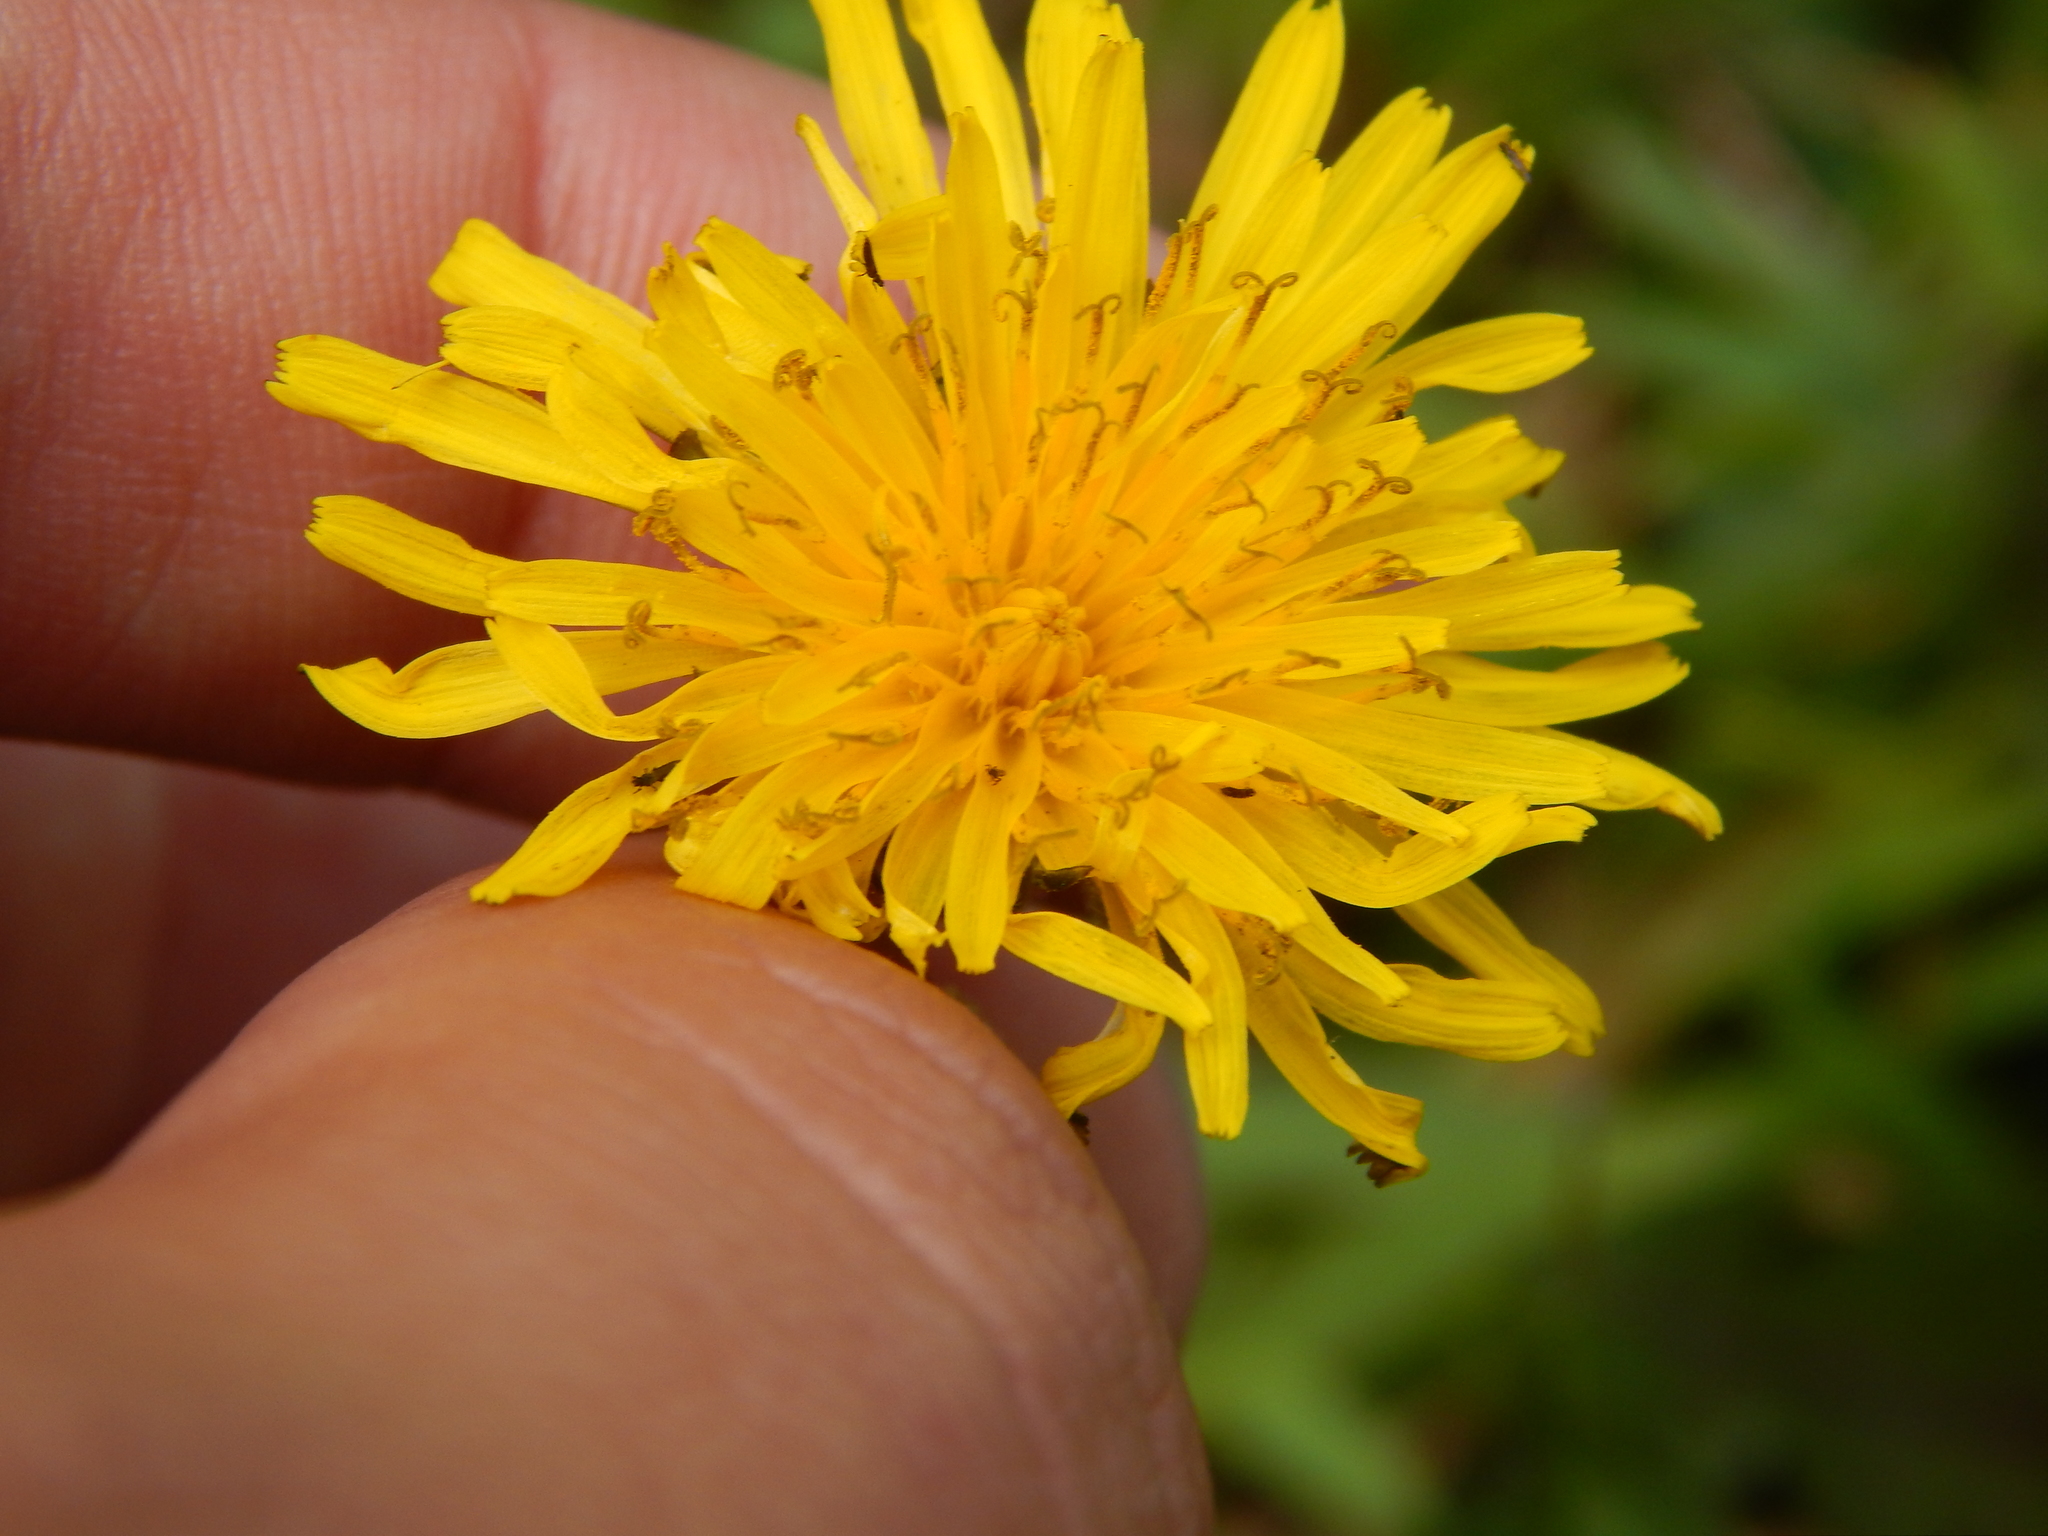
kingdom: Plantae
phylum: Tracheophyta
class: Magnoliopsida
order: Asterales
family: Asteraceae
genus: Taraxacum
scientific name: Taraxacum officinale
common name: Common dandelion
